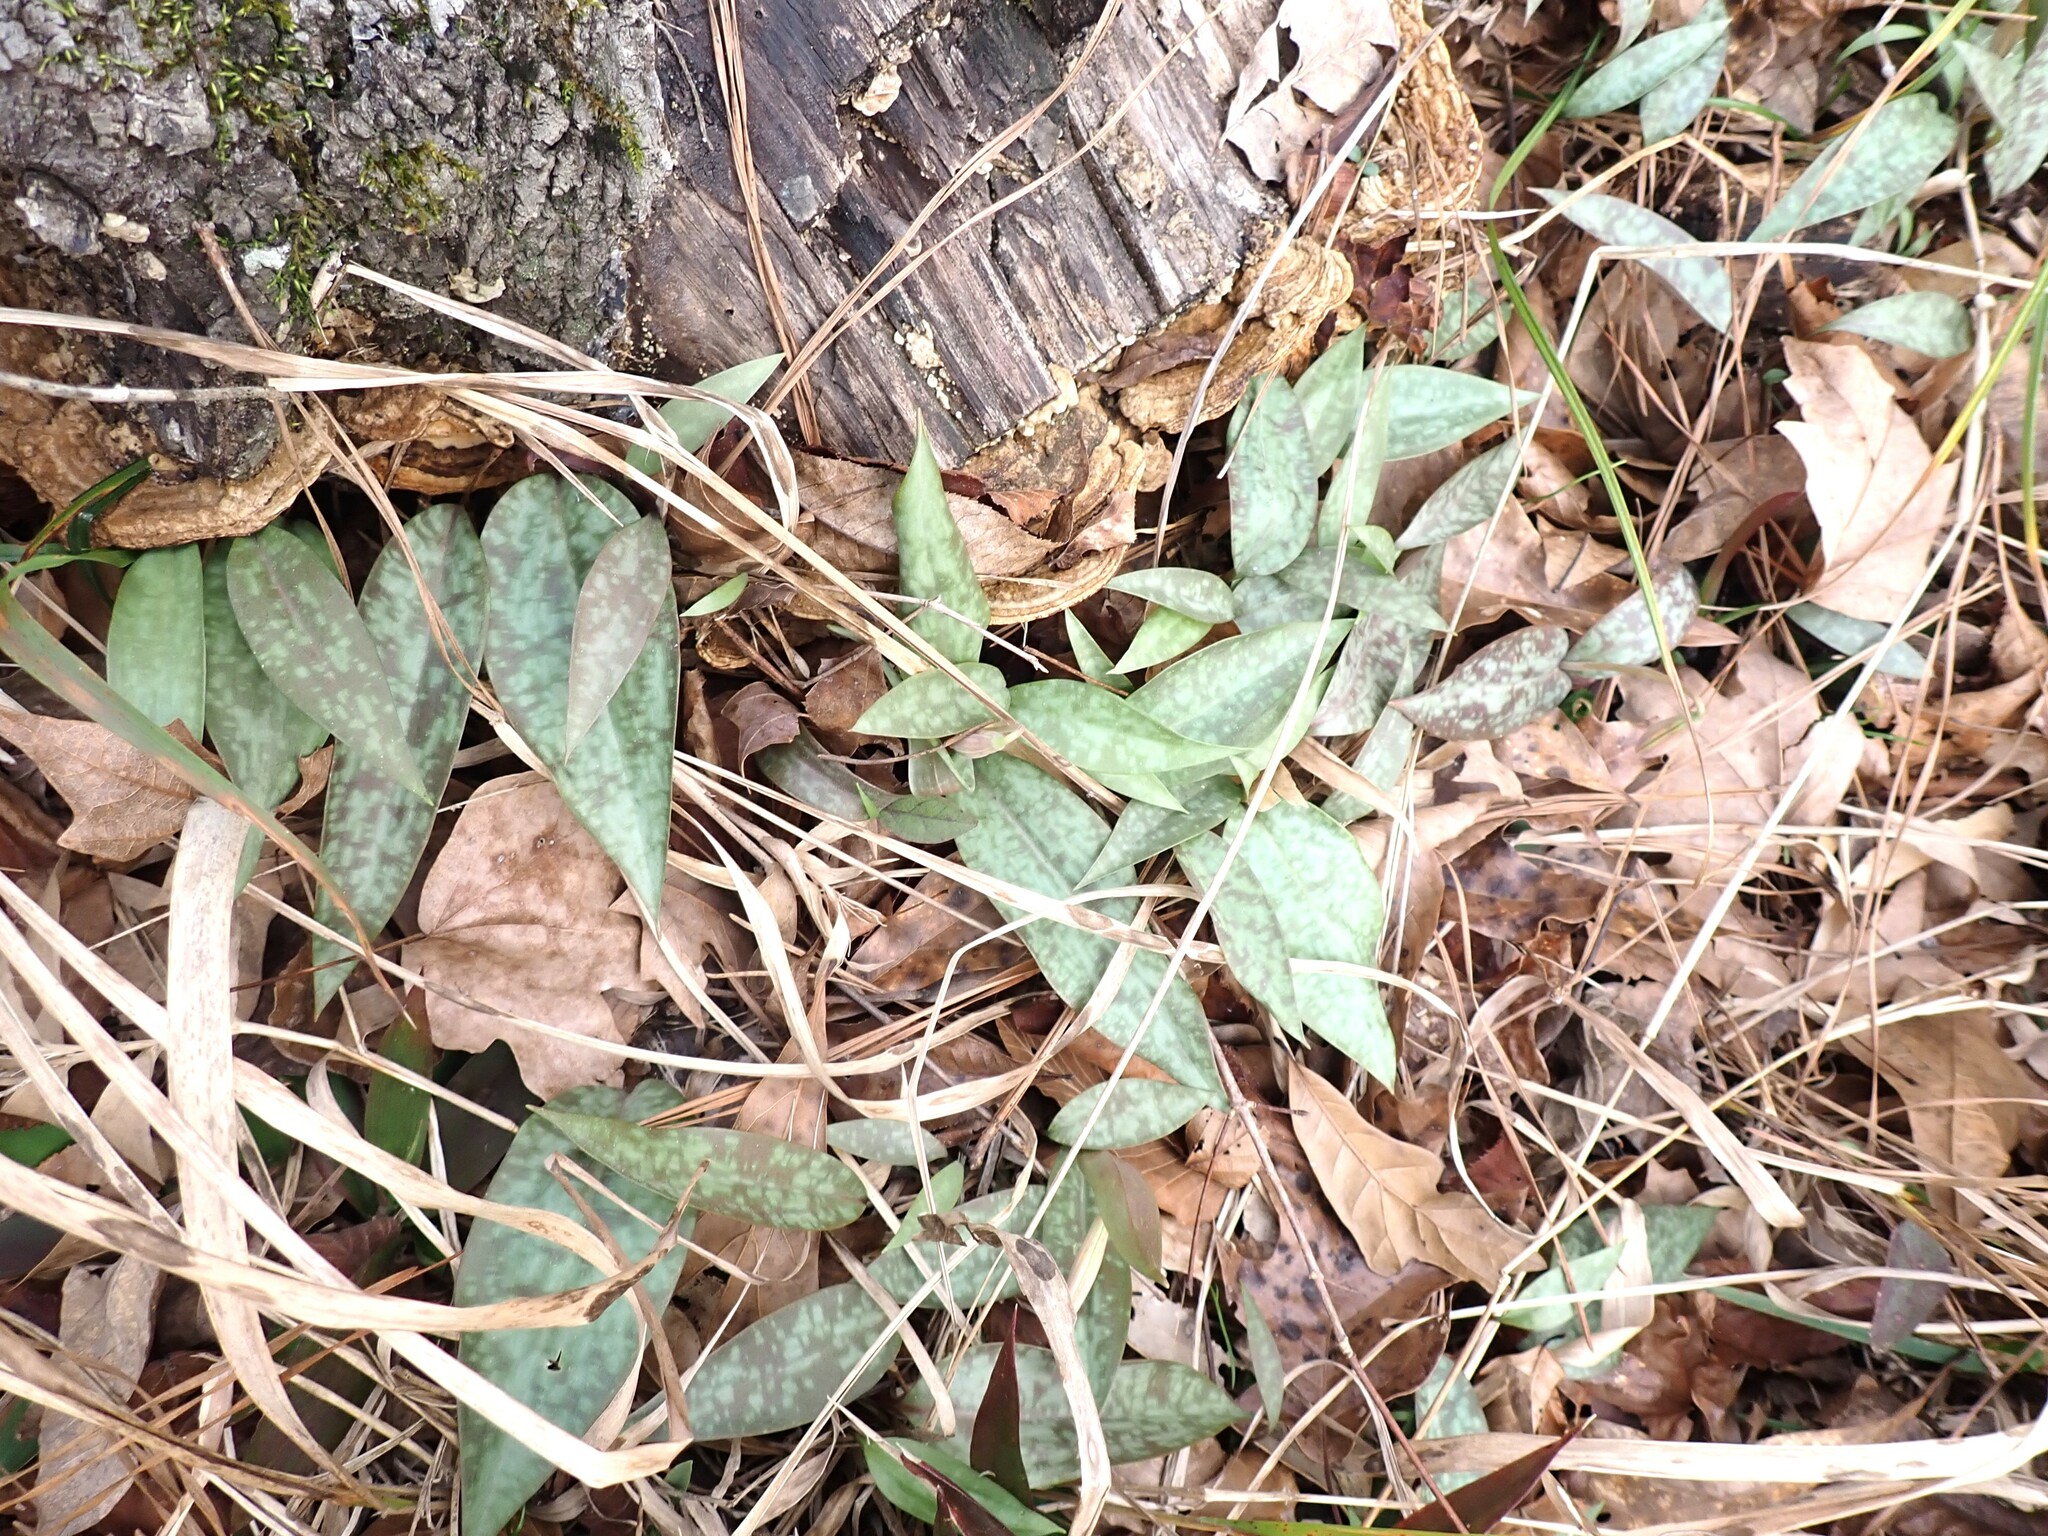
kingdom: Plantae
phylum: Tracheophyta
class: Liliopsida
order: Liliales
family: Liliaceae
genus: Erythronium
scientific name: Erythronium umbilicatum
